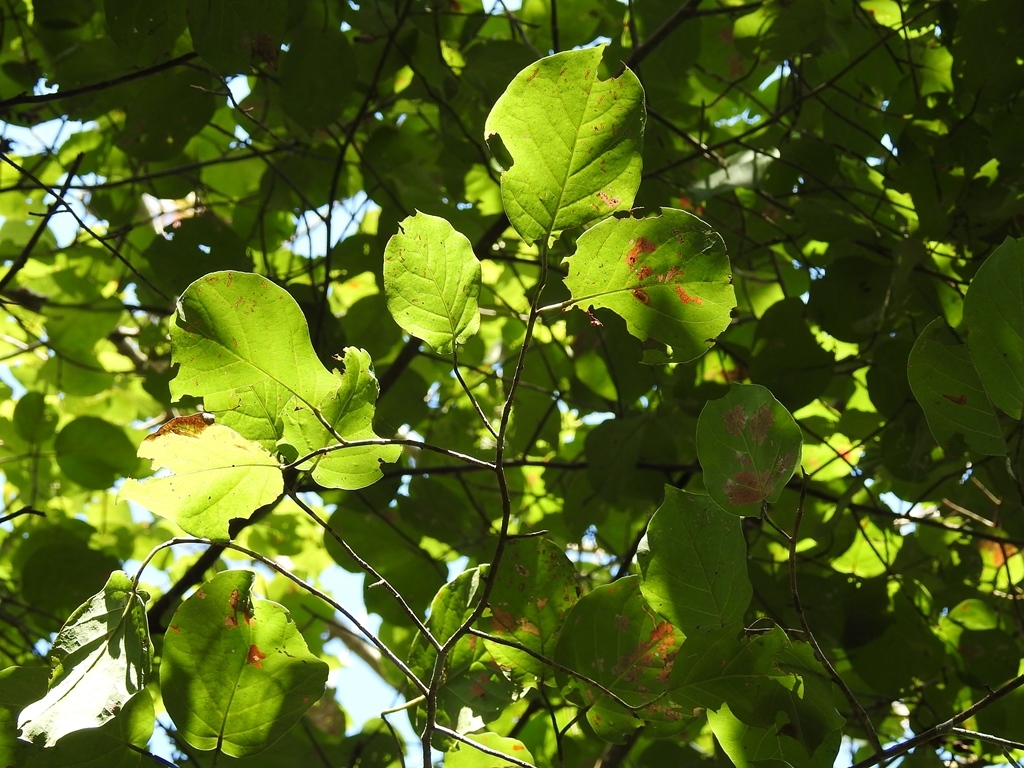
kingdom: Plantae
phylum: Tracheophyta
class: Magnoliopsida
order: Caryophyllales
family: Polygonaceae
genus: Coccoloba
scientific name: Coccoloba acapulcensis
